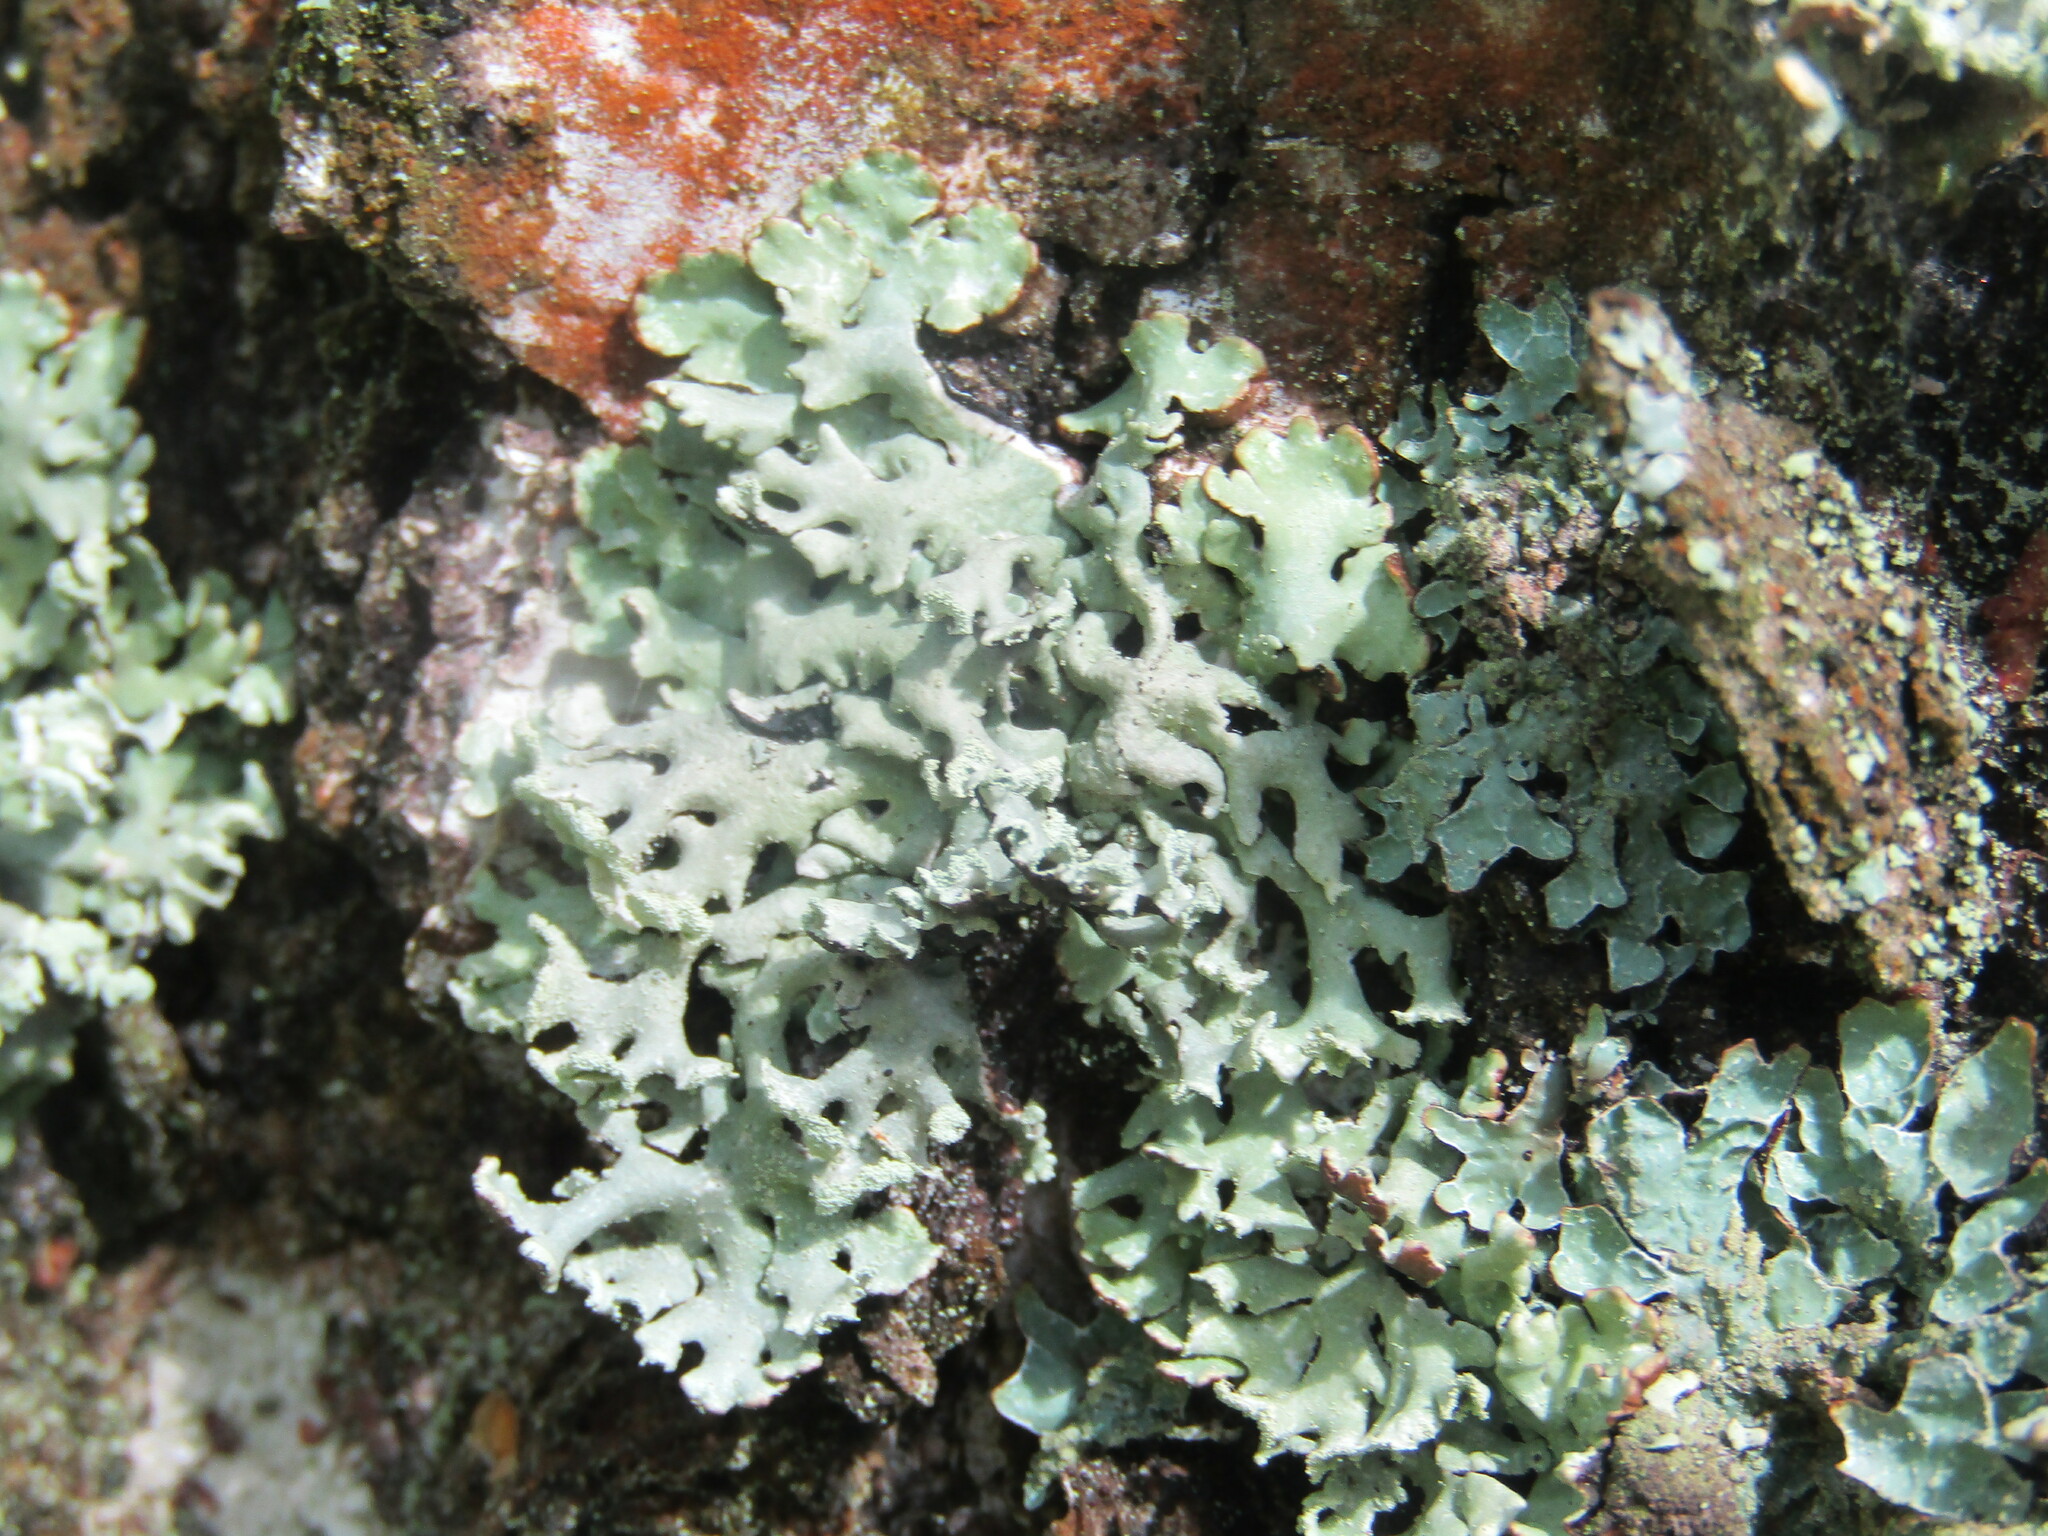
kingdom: Fungi
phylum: Ascomycota
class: Lecanoromycetes
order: Lecanorales
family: Parmeliaceae
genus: Hypogymnia
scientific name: Hypogymnia physodes
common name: Dark crottle
